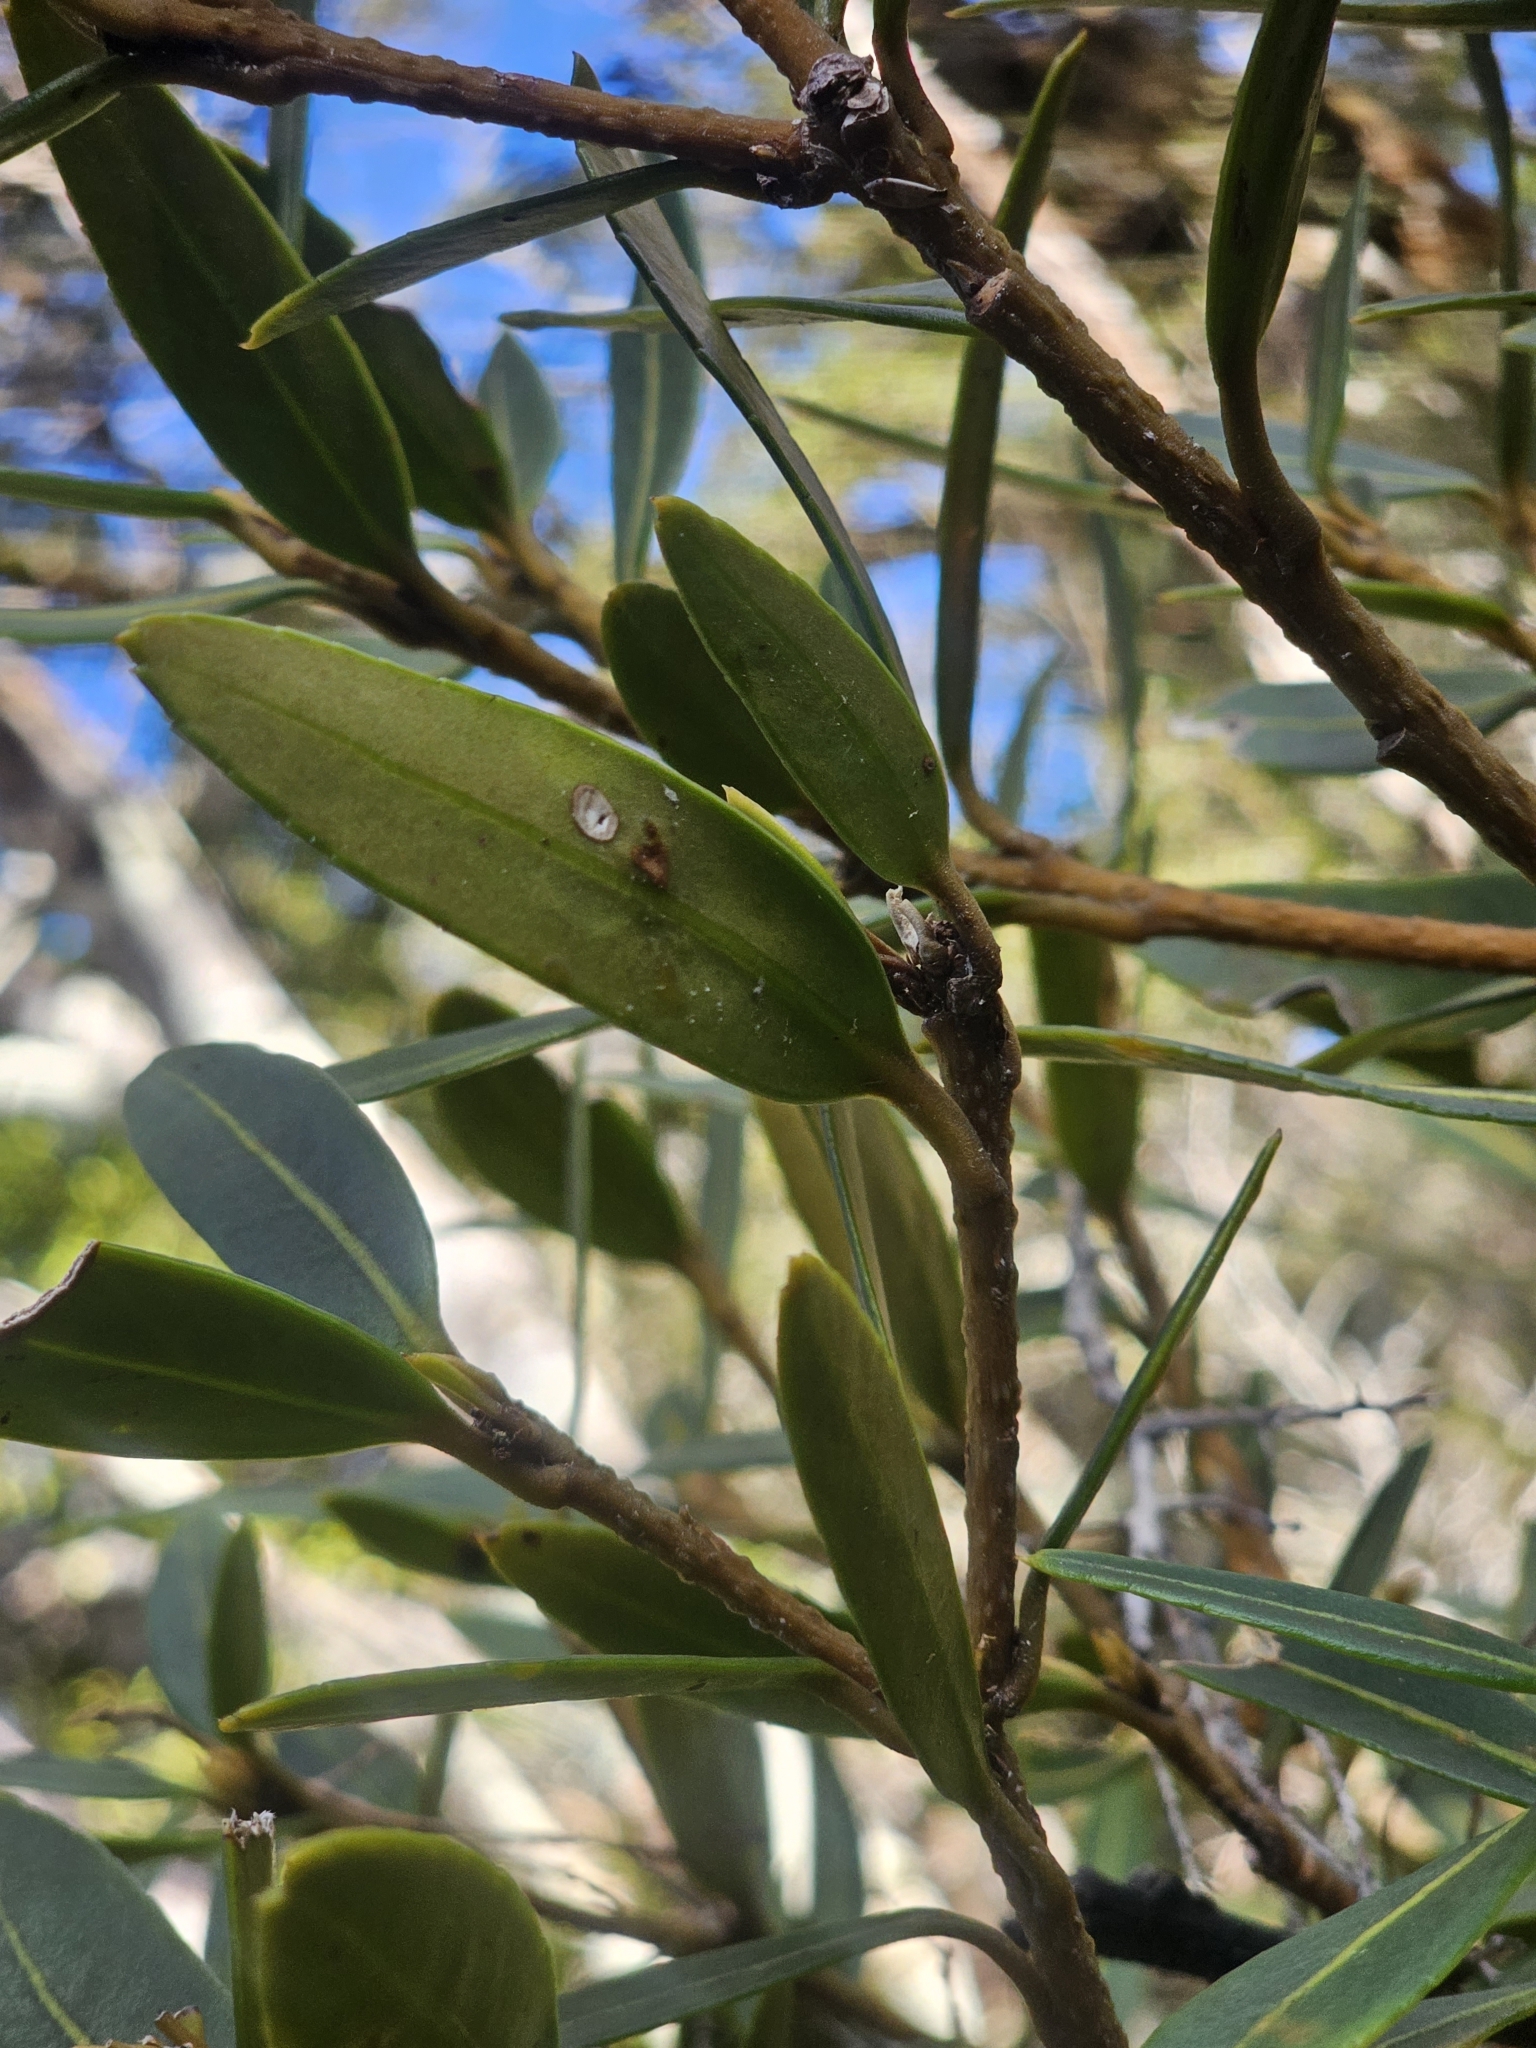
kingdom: Plantae
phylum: Tracheophyta
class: Magnoliopsida
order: Apiales
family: Araliaceae
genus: Pseudopanax
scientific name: Pseudopanax linearis
